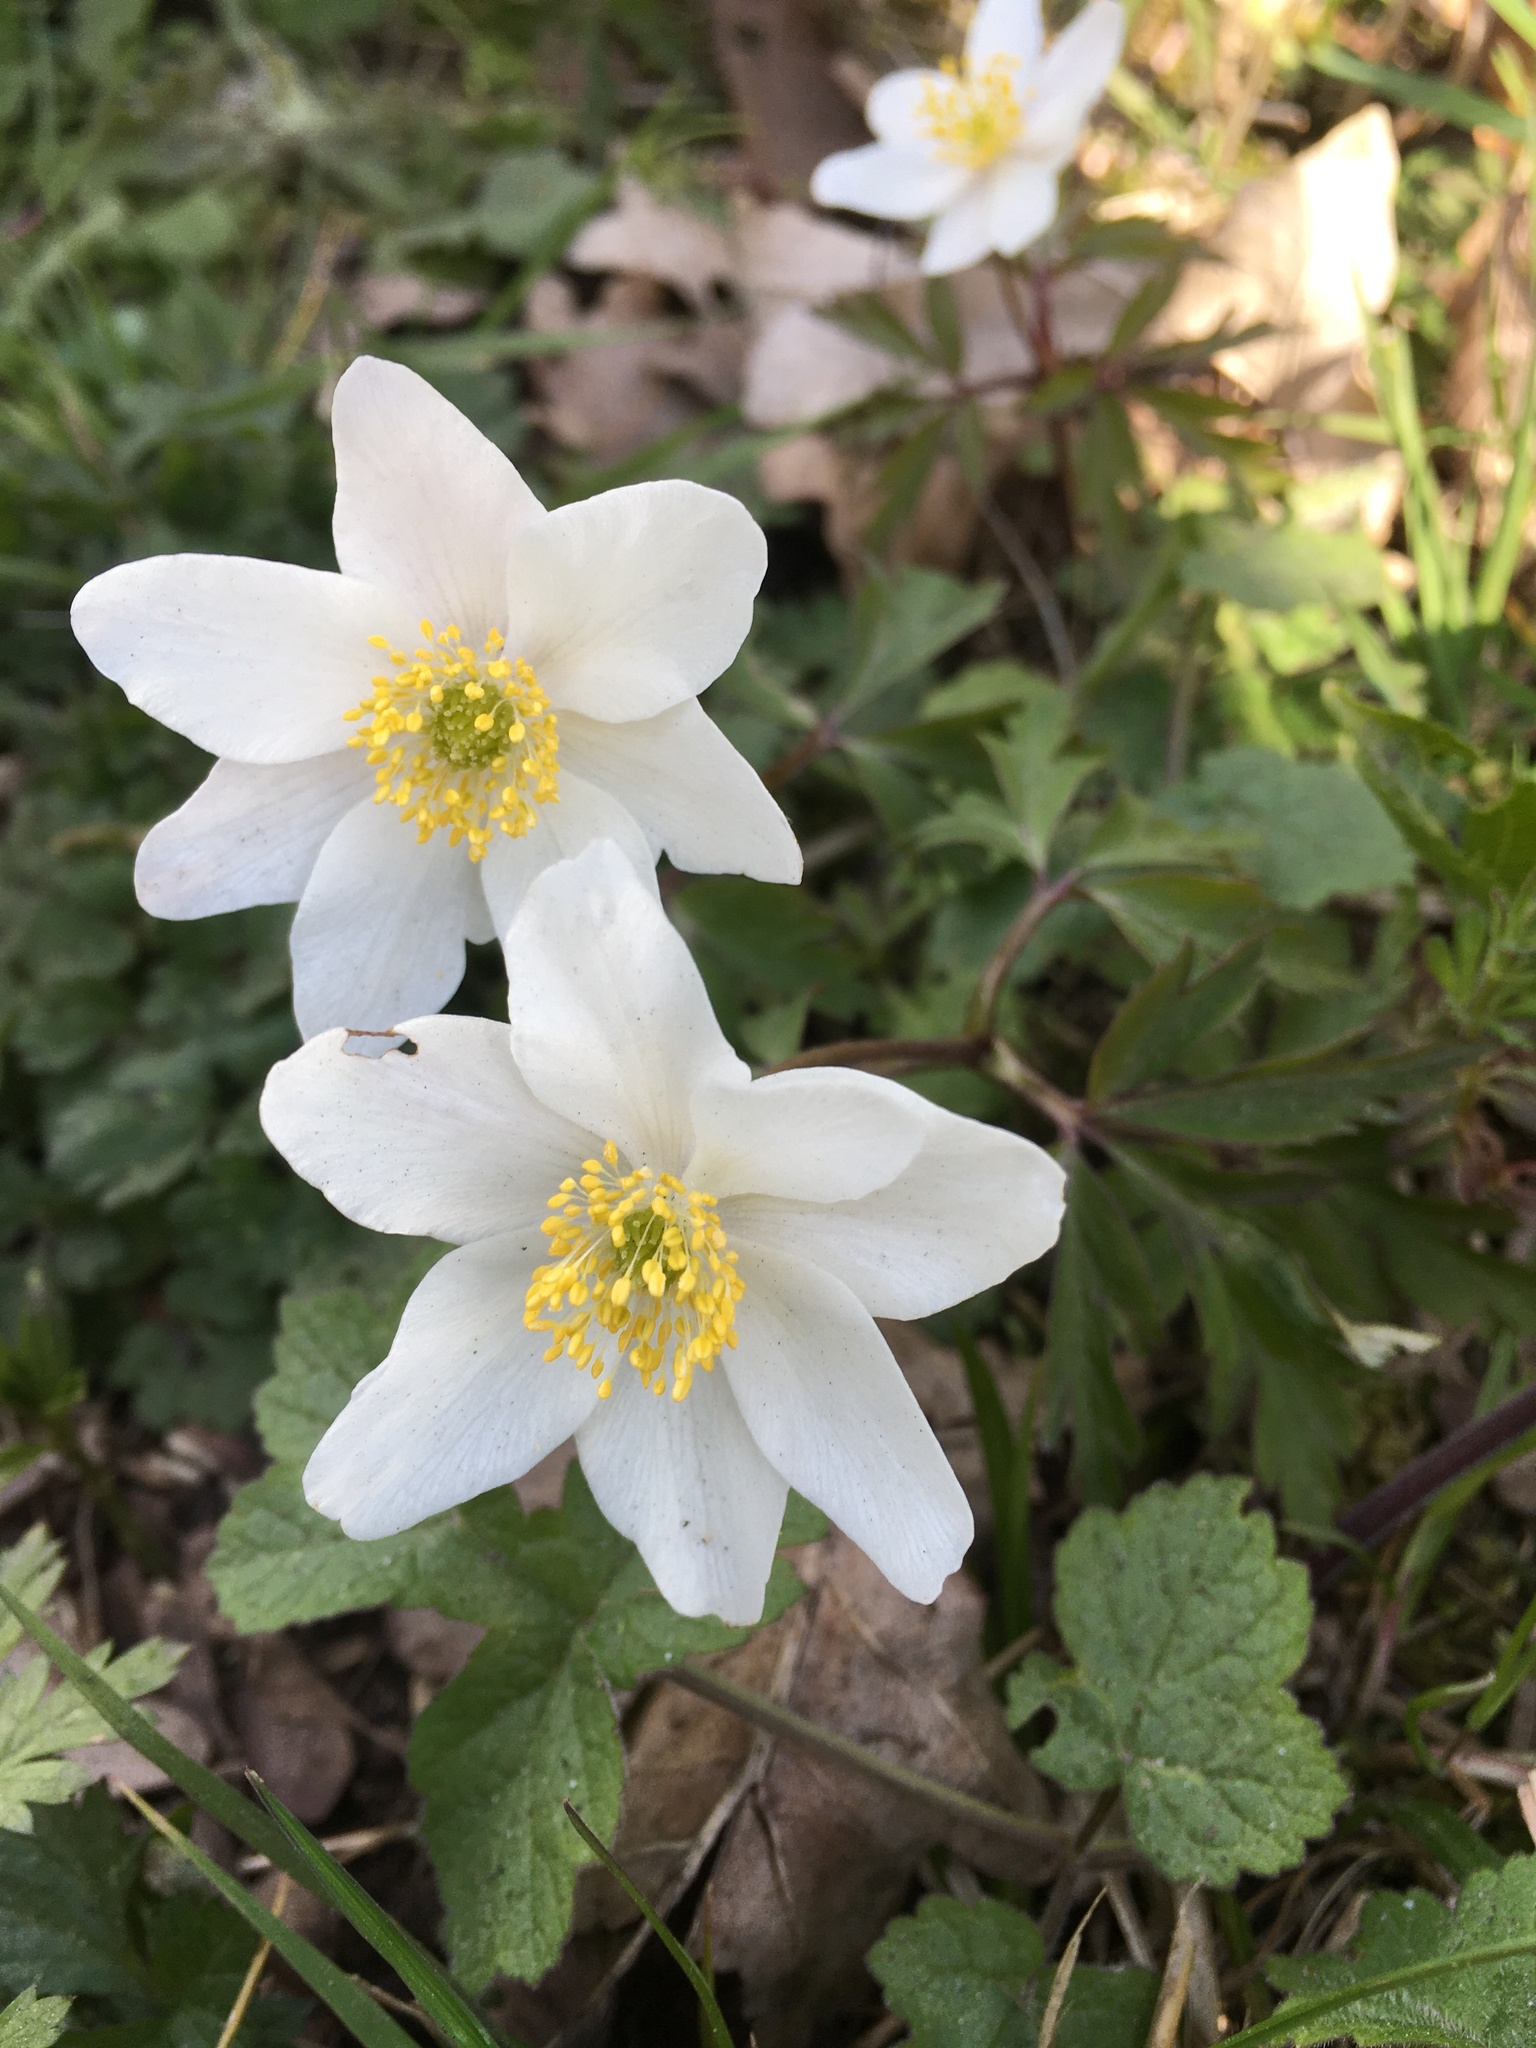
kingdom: Plantae
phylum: Tracheophyta
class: Magnoliopsida
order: Ranunculales
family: Ranunculaceae
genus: Anemone
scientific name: Anemone nemorosa
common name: Wood anemone
